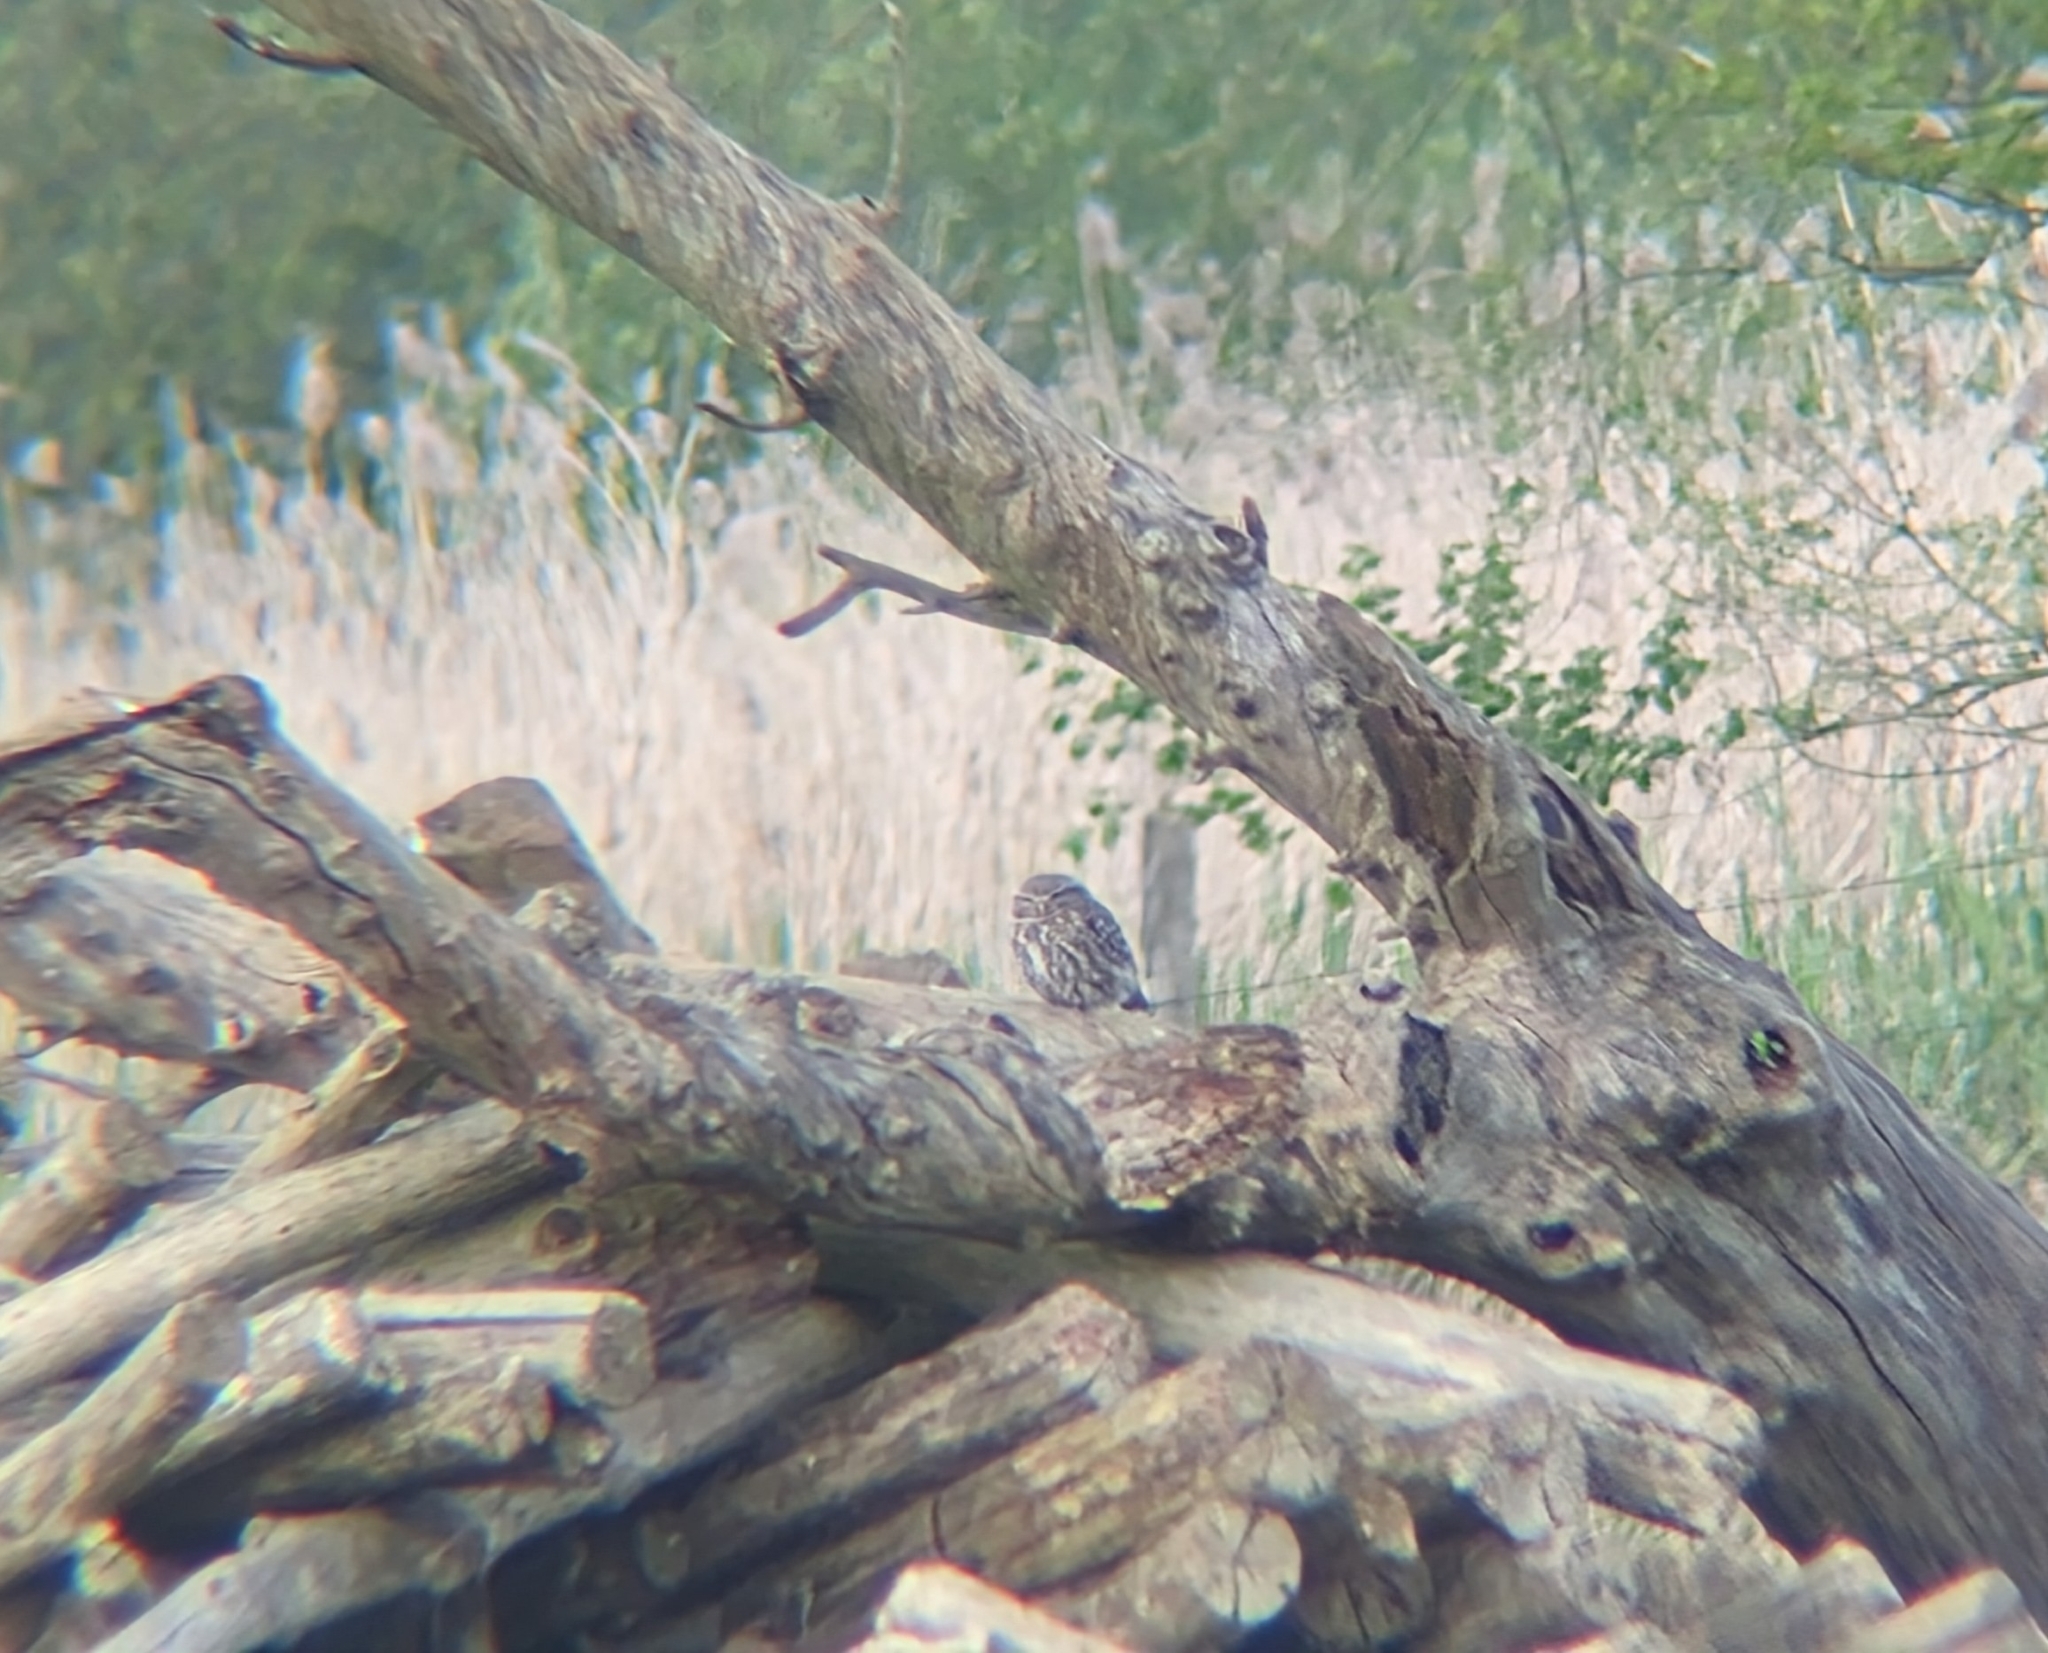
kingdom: Animalia
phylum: Chordata
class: Aves
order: Strigiformes
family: Strigidae
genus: Athene
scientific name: Athene noctua
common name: Little owl
